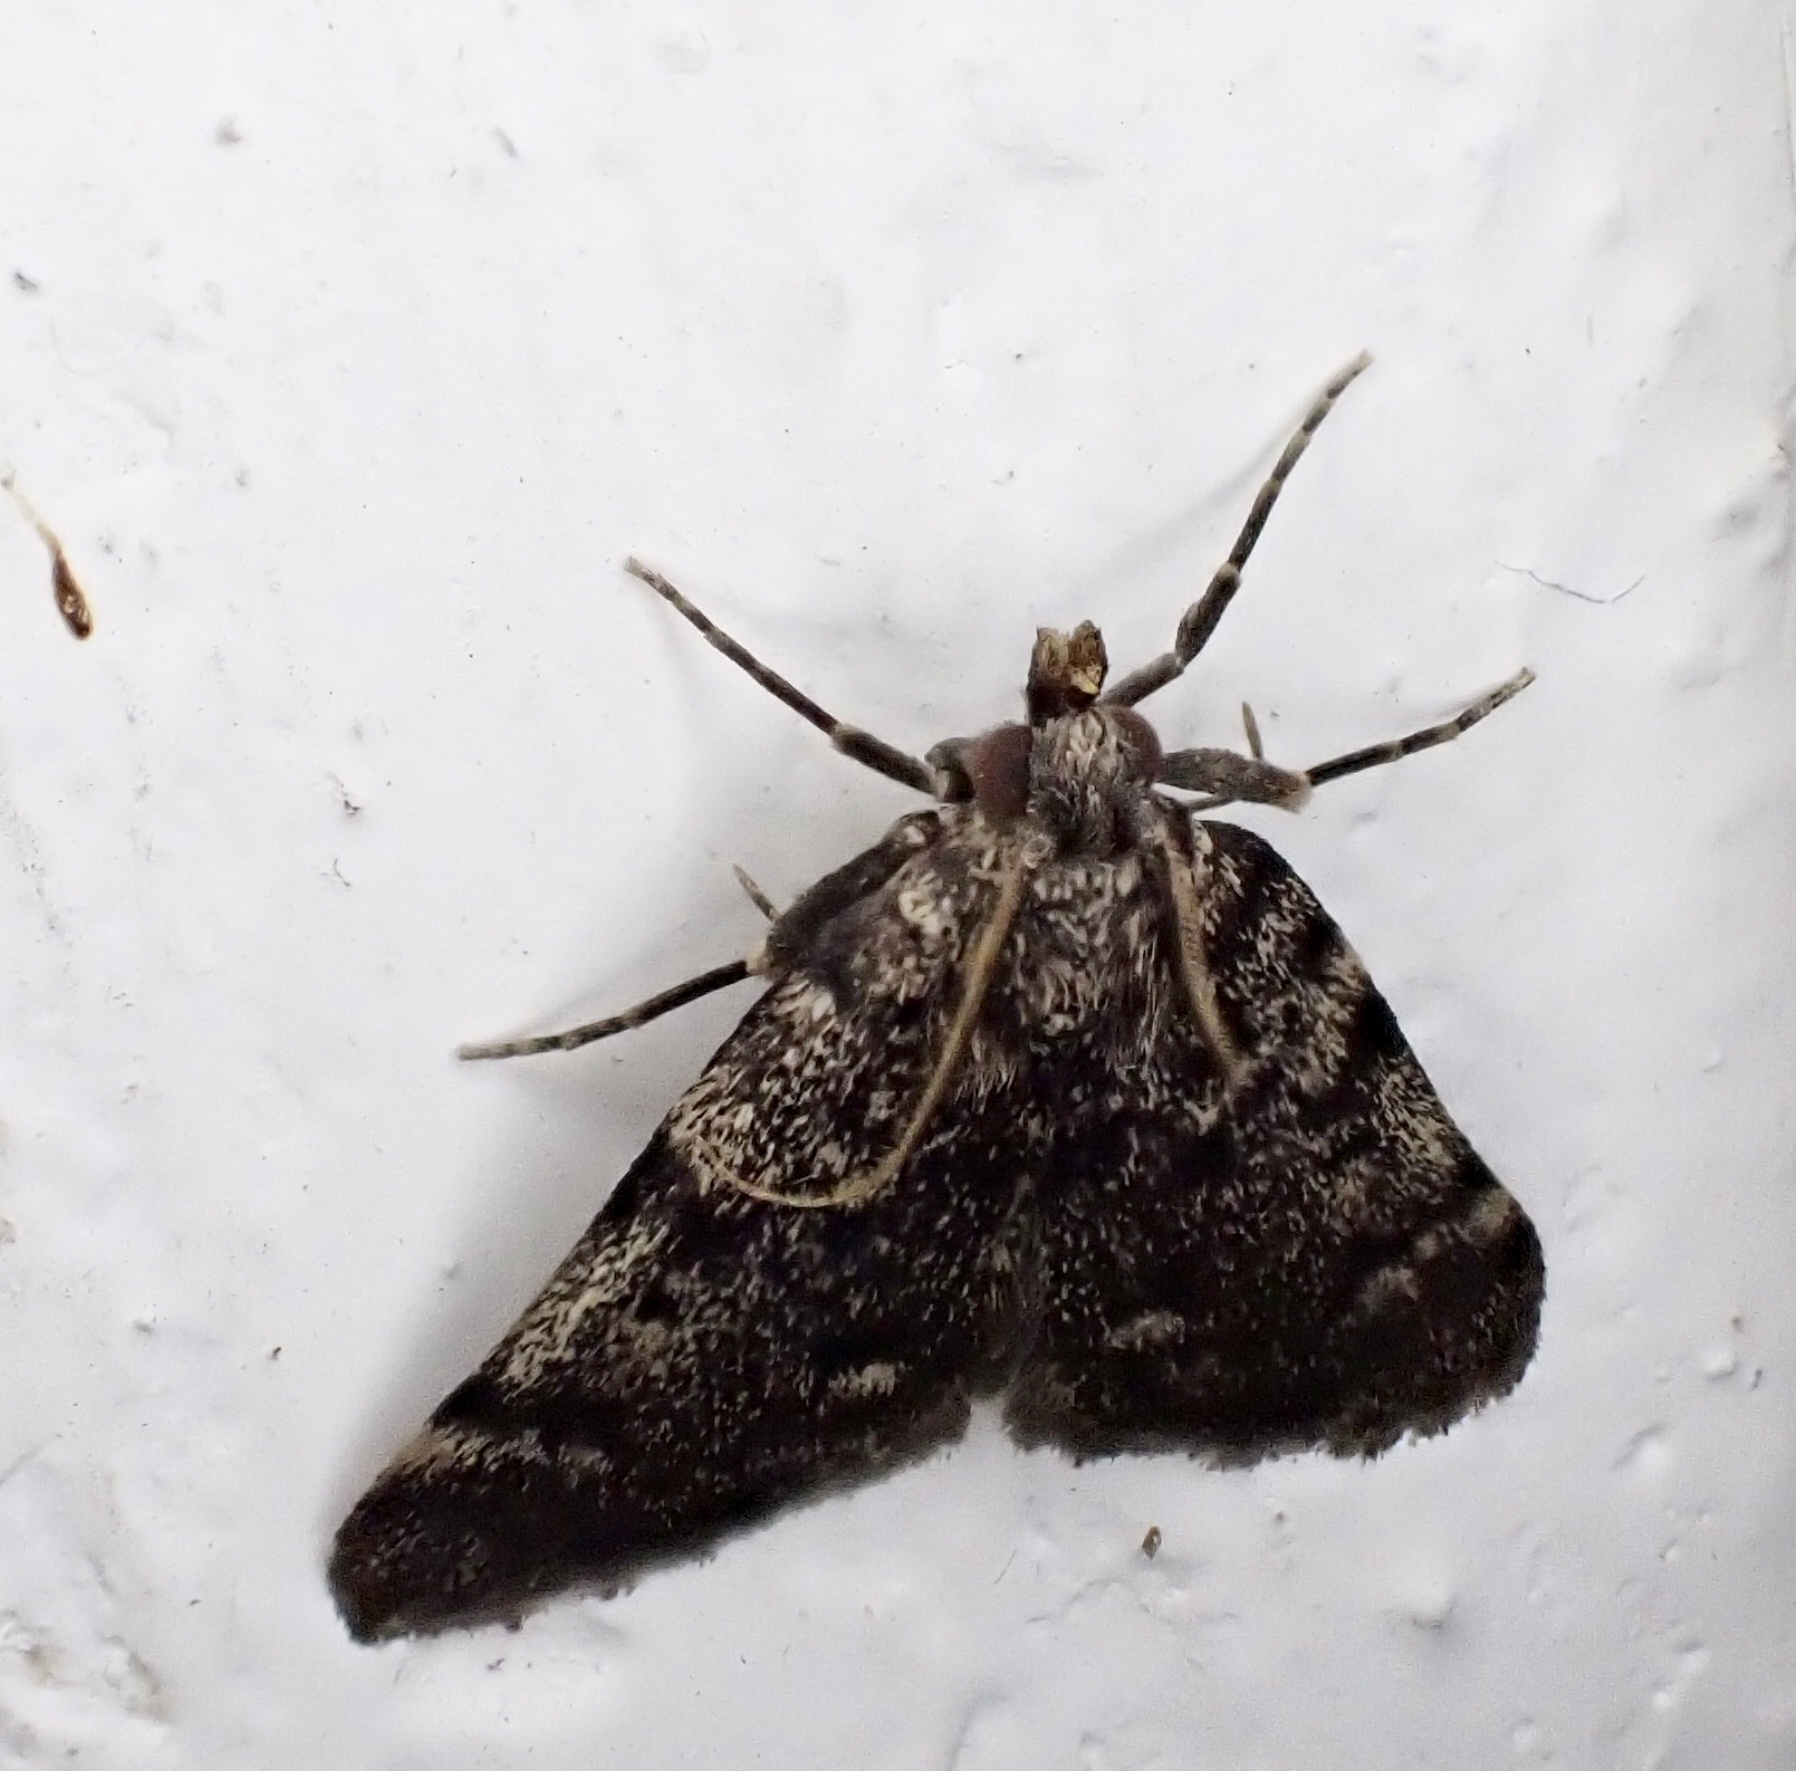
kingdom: Animalia
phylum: Arthropoda
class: Insecta
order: Lepidoptera
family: Pyralidae
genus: Aglossa
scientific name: Aglossa pinguinalis
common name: Large tabby
